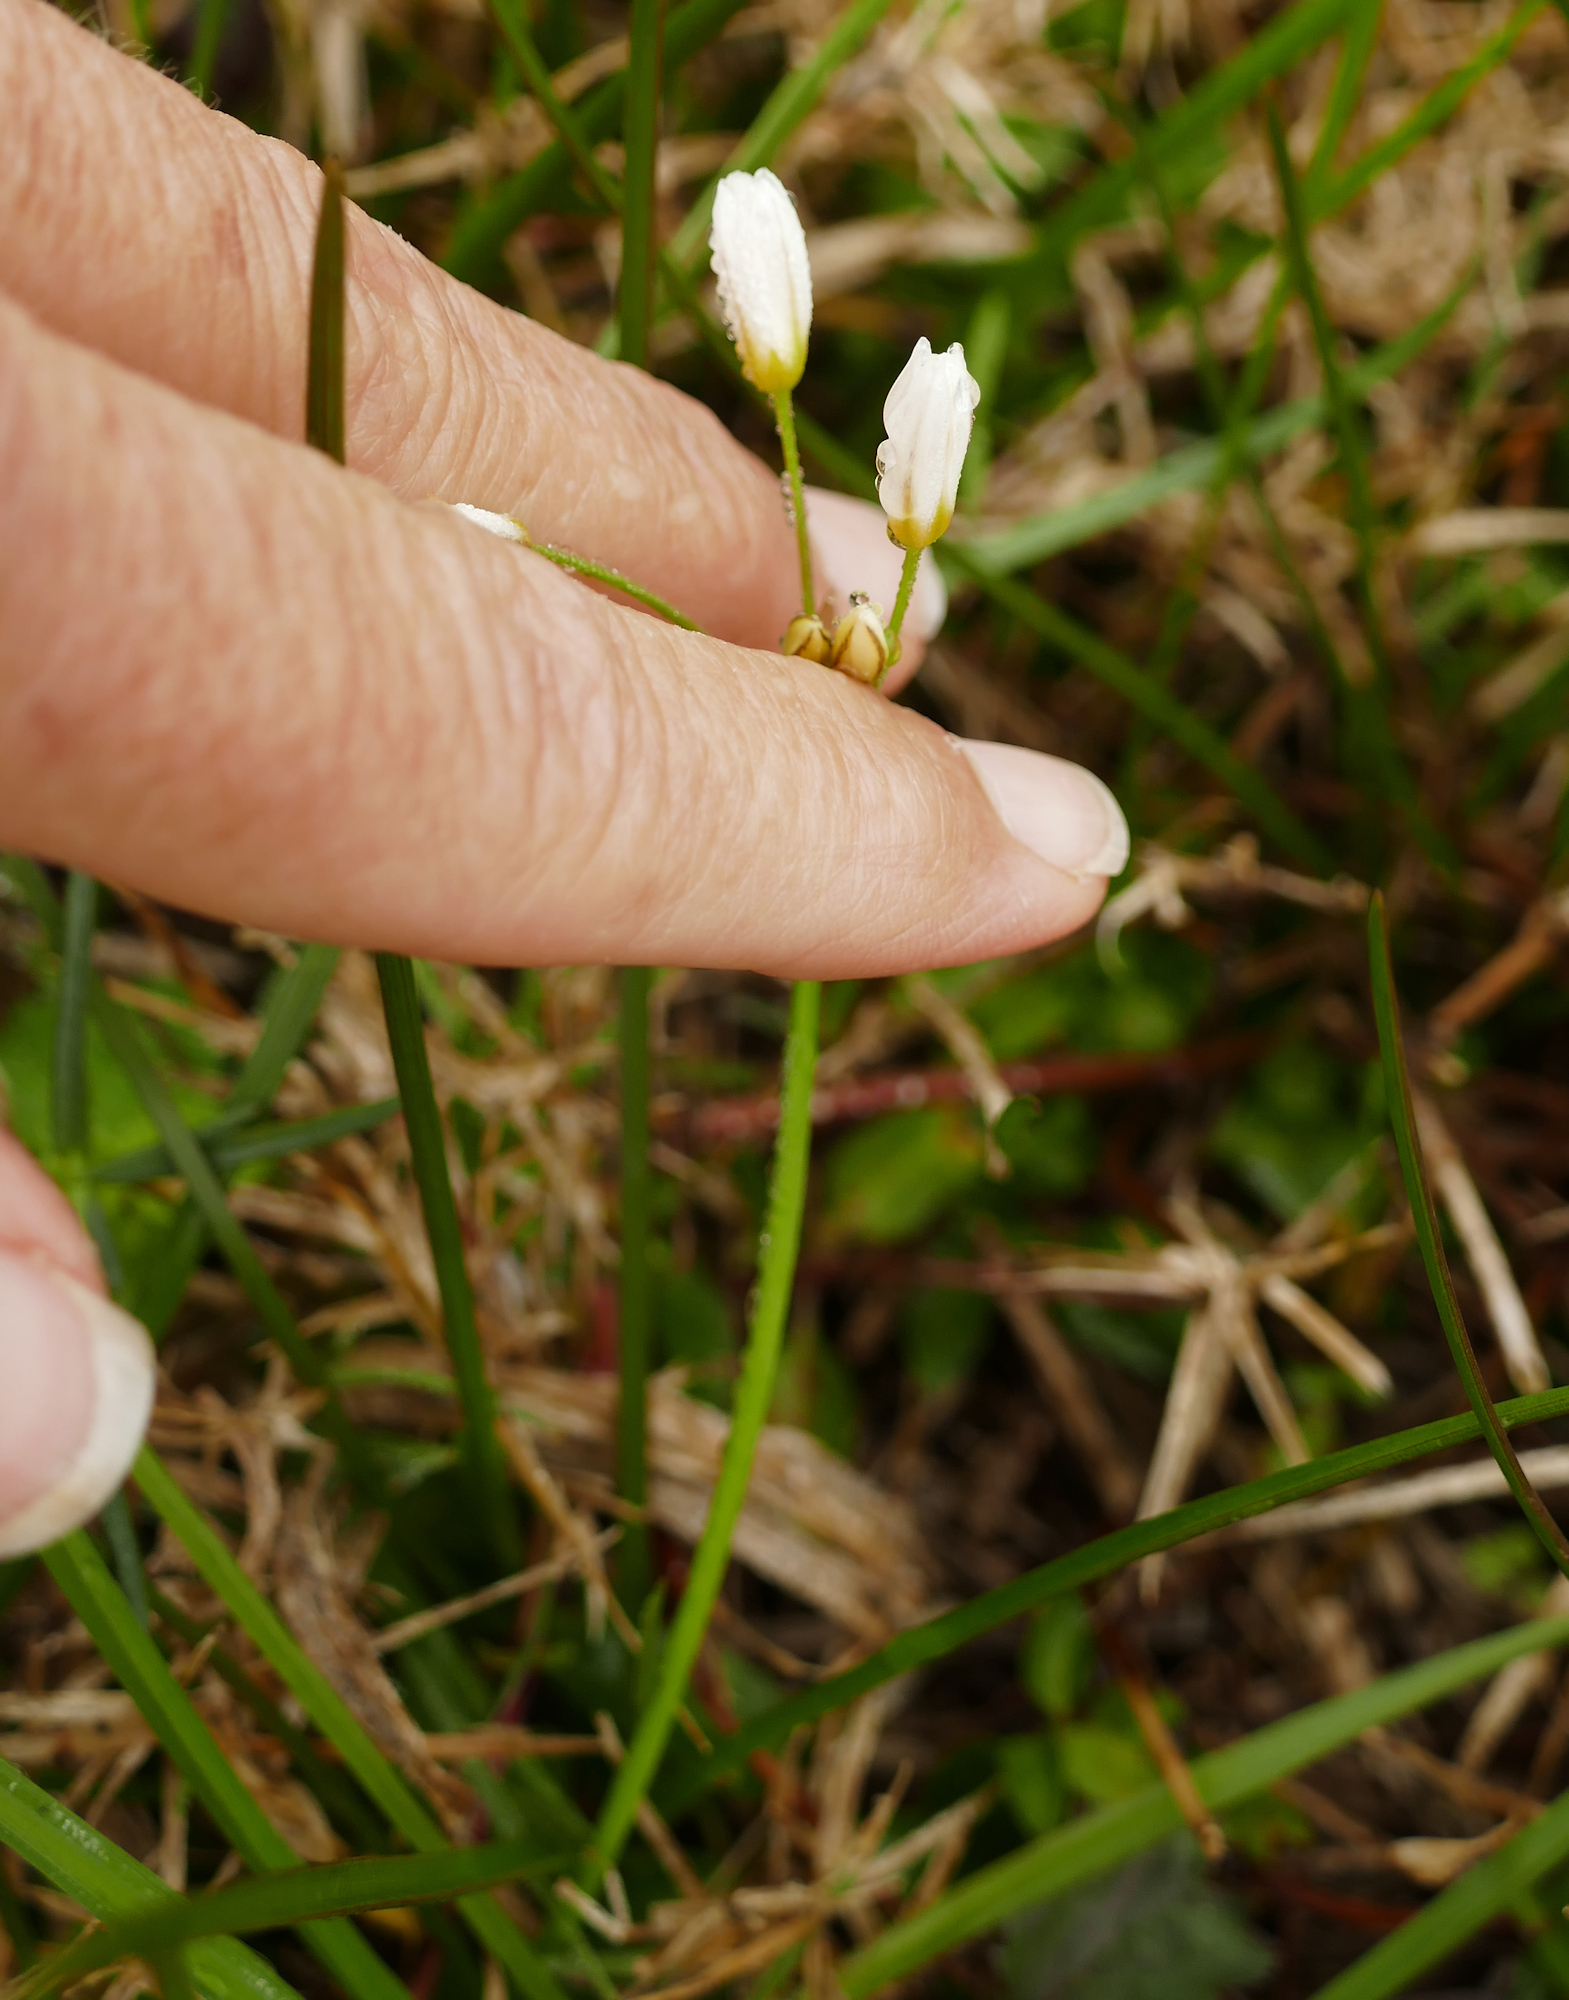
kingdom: Plantae
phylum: Tracheophyta
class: Liliopsida
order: Asparagales
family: Amaryllidaceae
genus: Nothoscordum
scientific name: Nothoscordum bivalve
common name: Crow-poison
